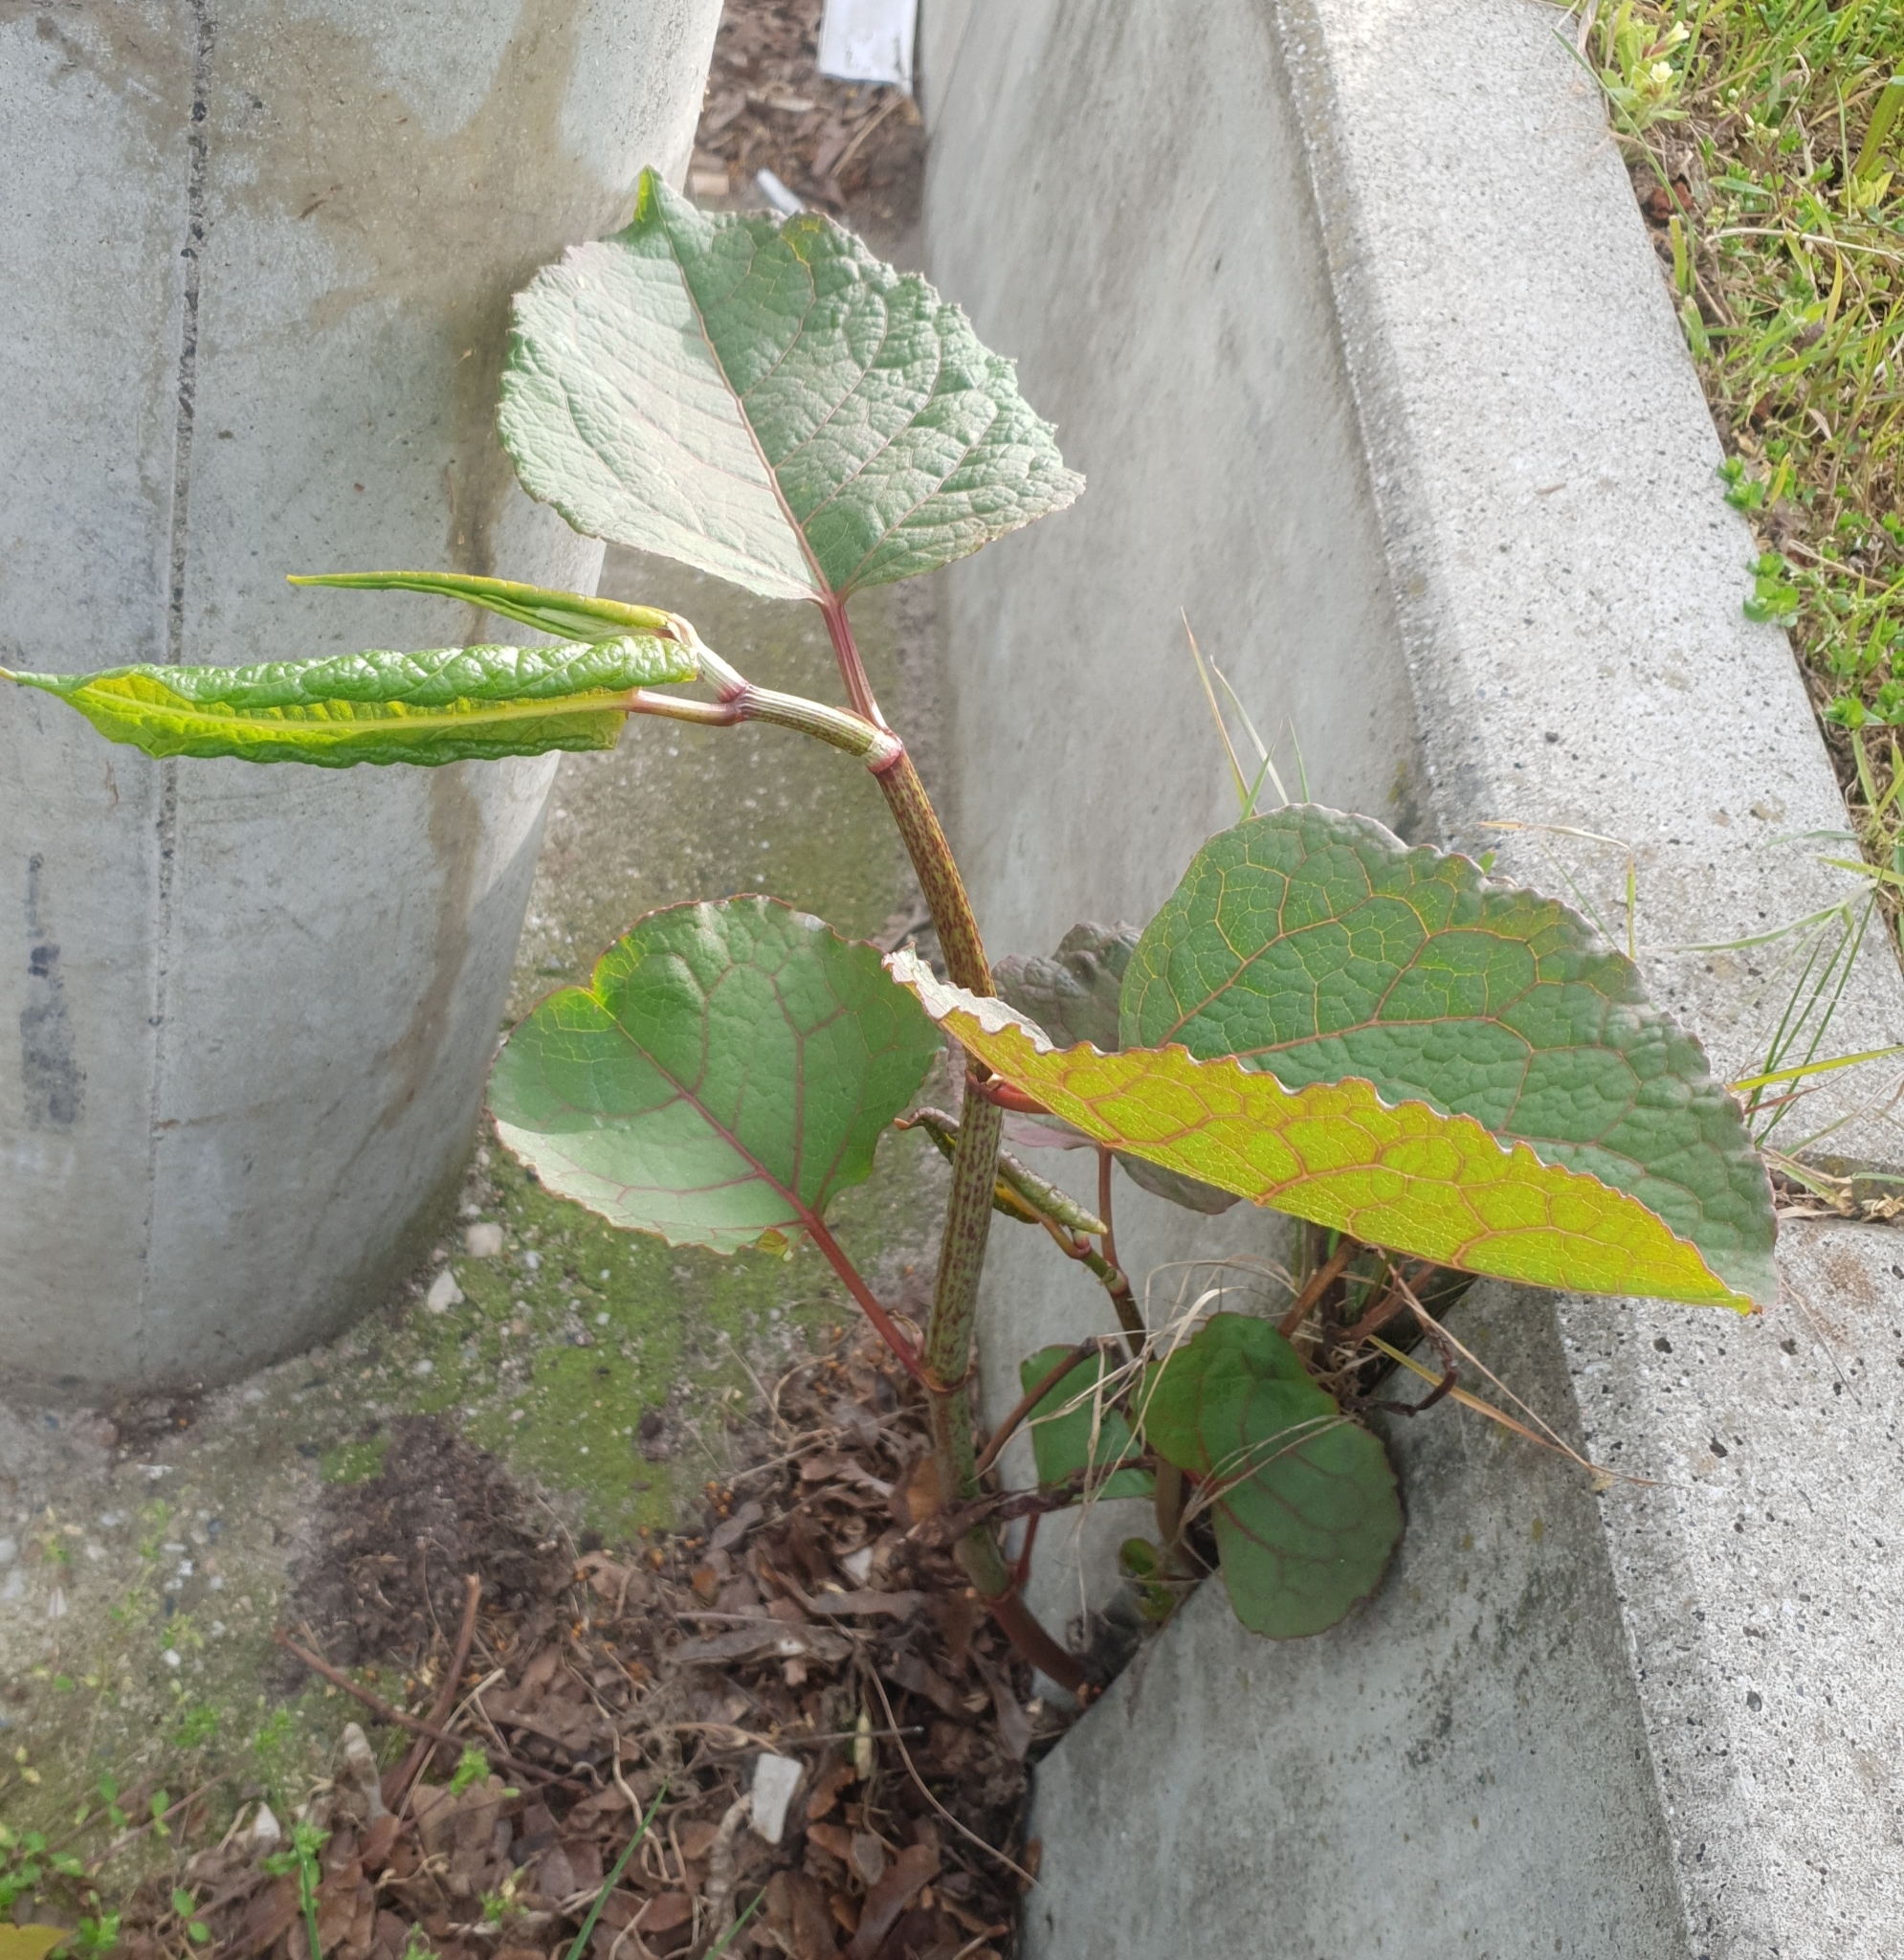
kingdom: Plantae
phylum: Tracheophyta
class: Magnoliopsida
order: Caryophyllales
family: Polygonaceae
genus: Reynoutria
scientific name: Reynoutria japonica
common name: Japanese knotweed
